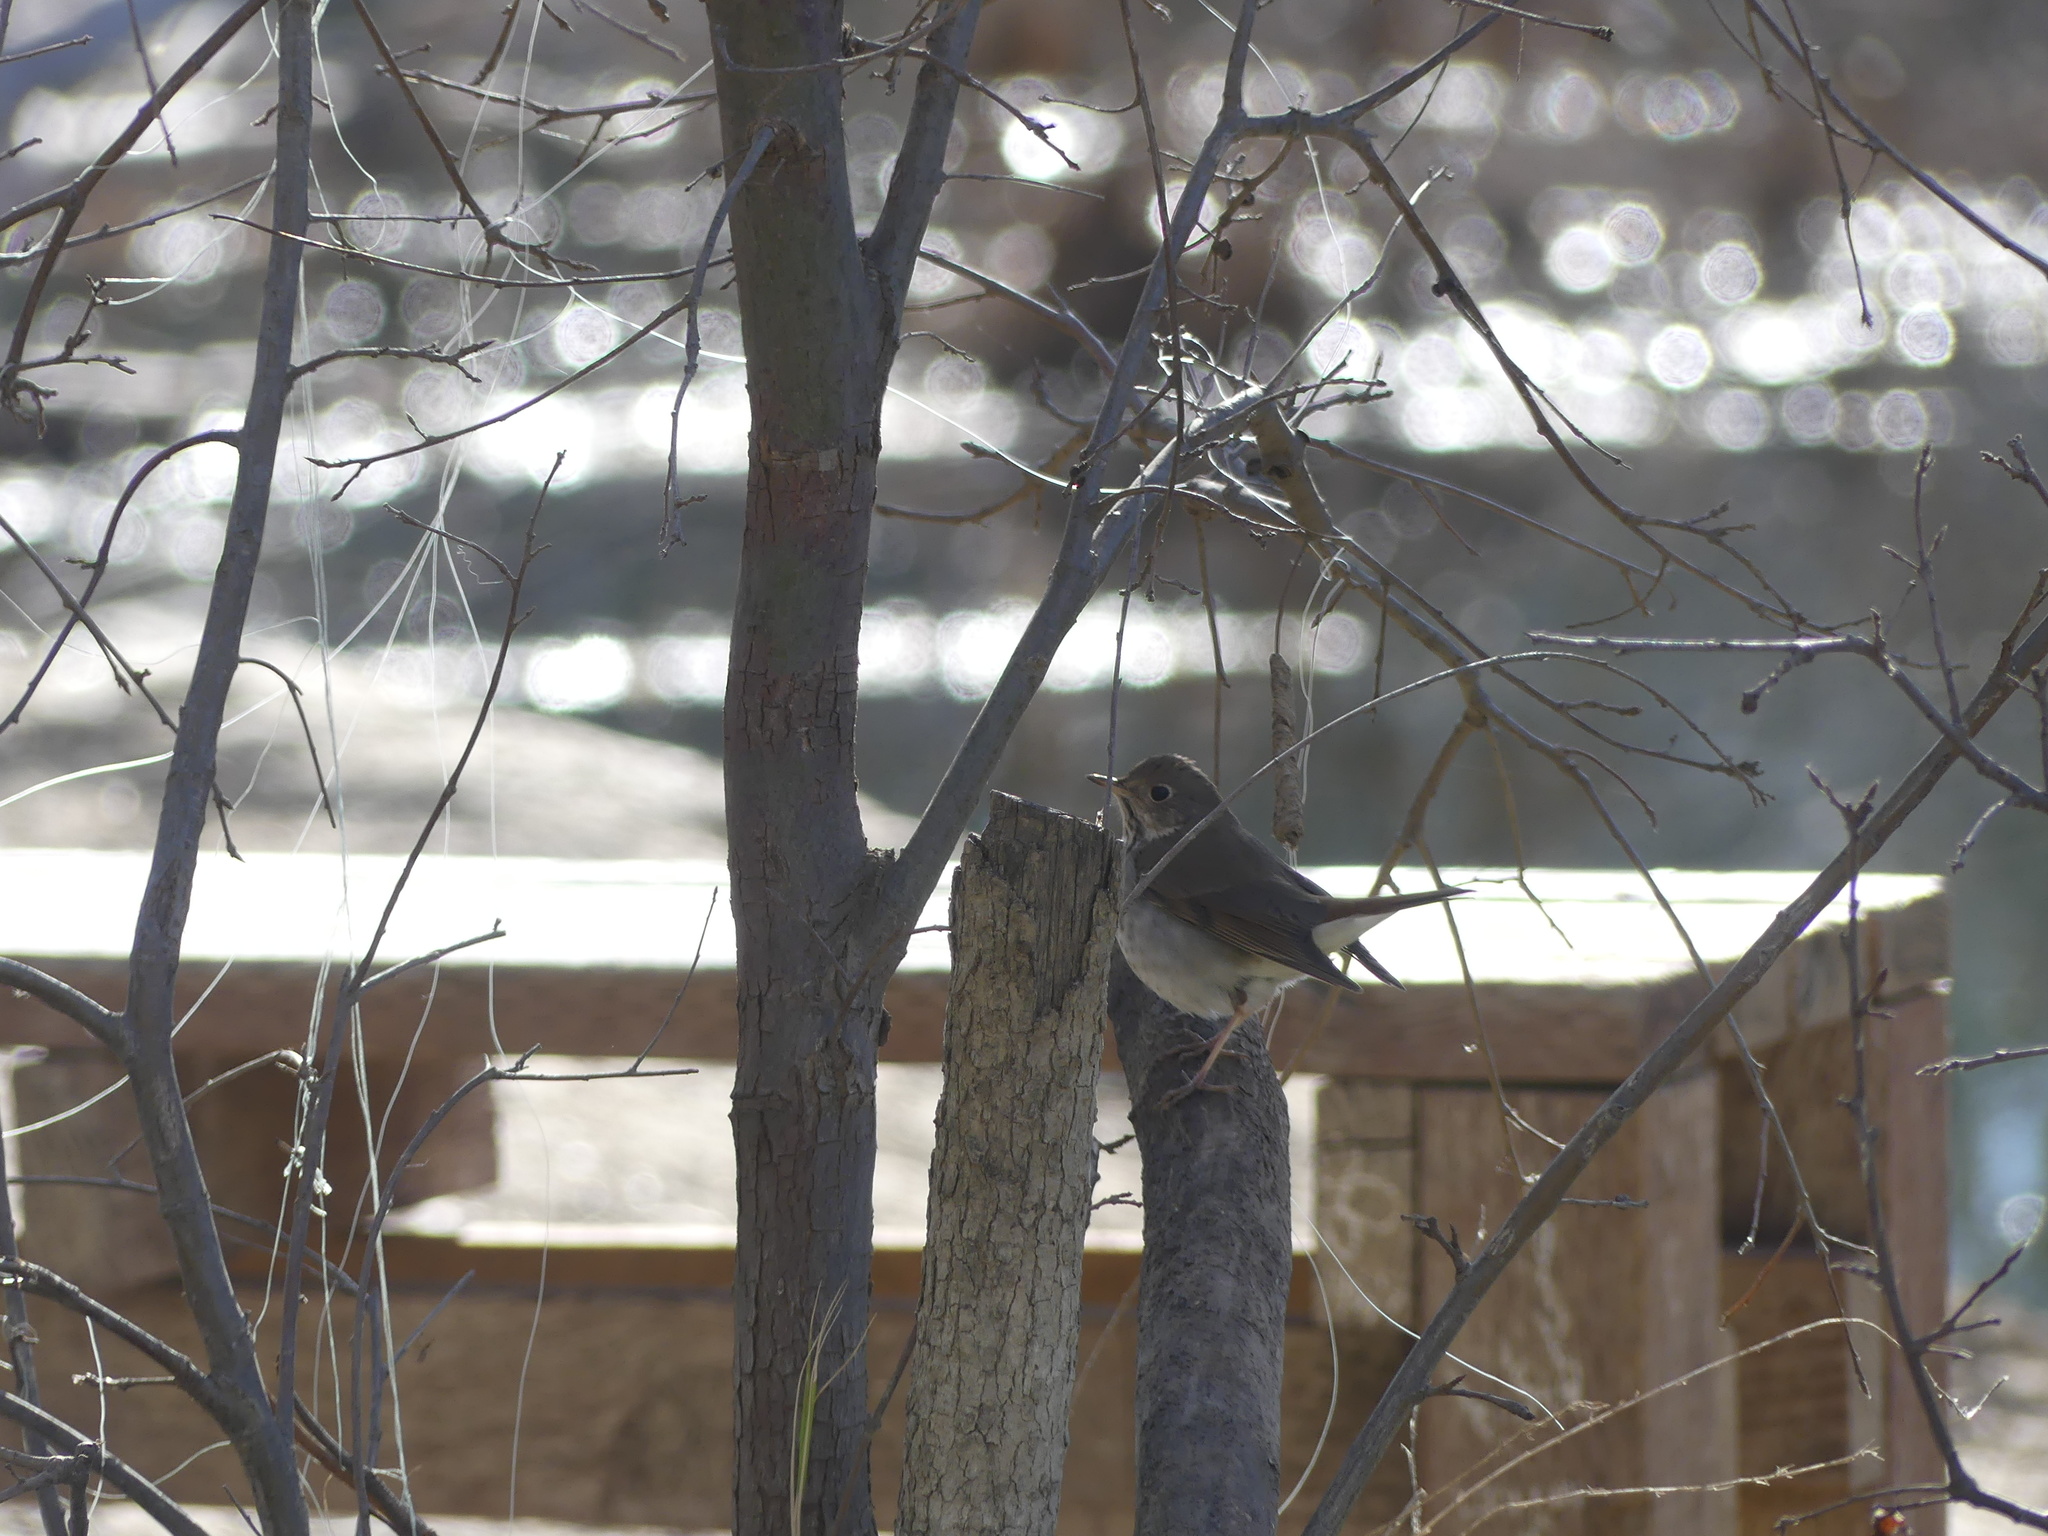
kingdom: Animalia
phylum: Chordata
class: Aves
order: Passeriformes
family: Turdidae
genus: Catharus
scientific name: Catharus guttatus
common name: Hermit thrush
